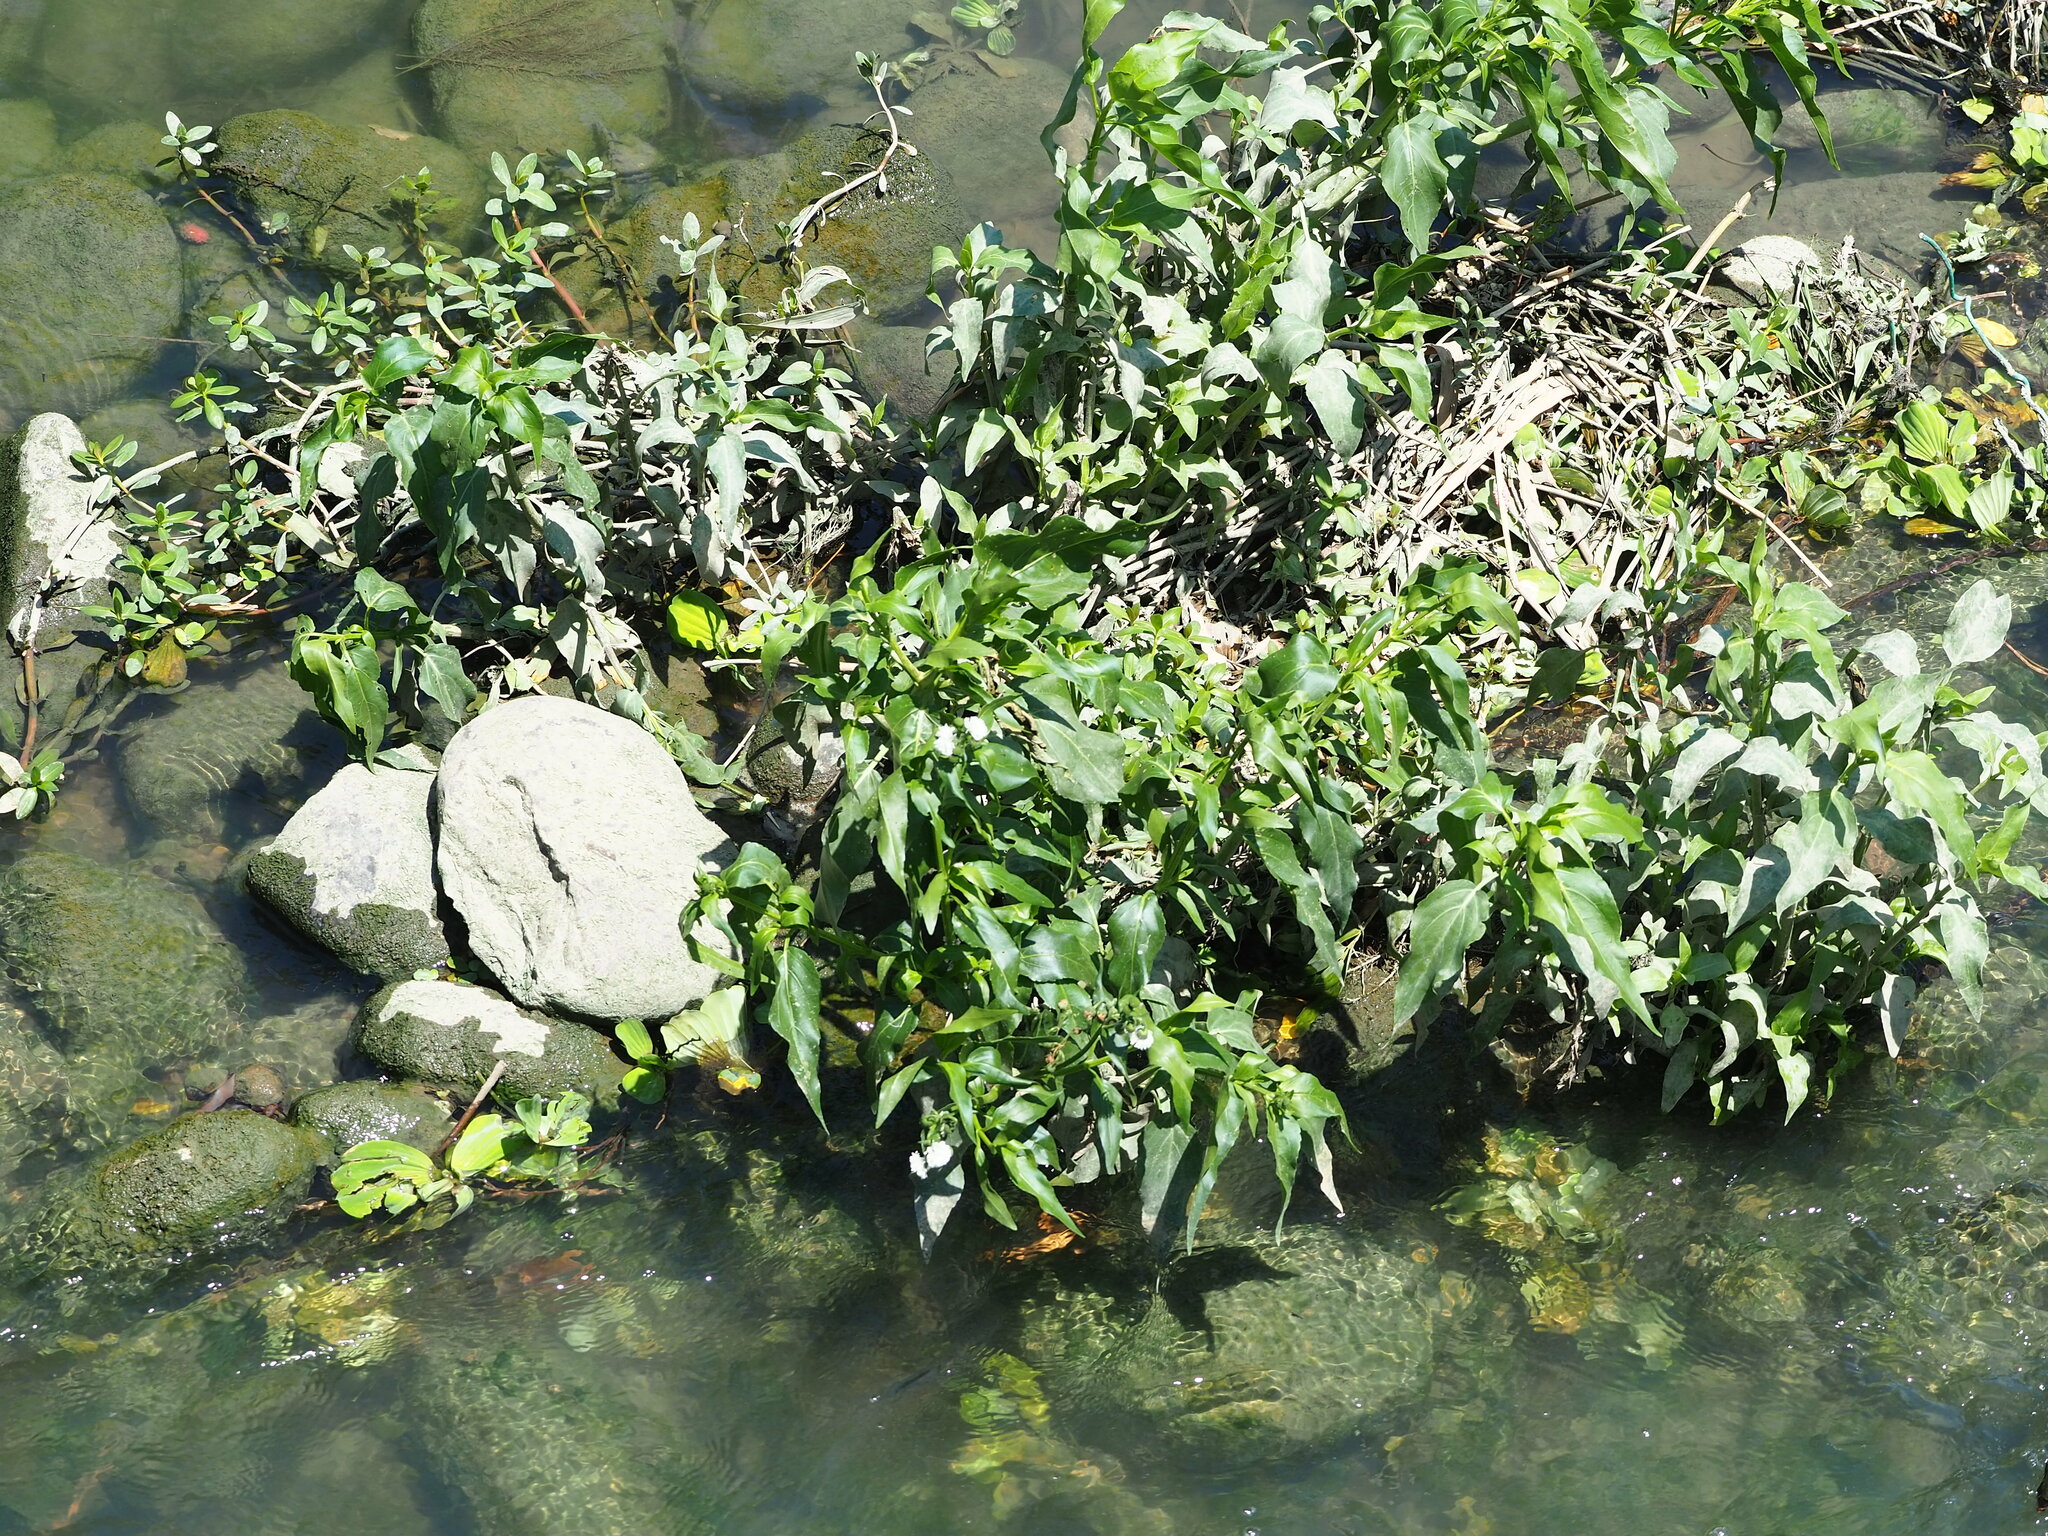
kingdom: Plantae
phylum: Tracheophyta
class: Magnoliopsida
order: Asterales
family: Asteraceae
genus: Gymnocoronis
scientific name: Gymnocoronis spilanthoides
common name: Senegal teaplant
